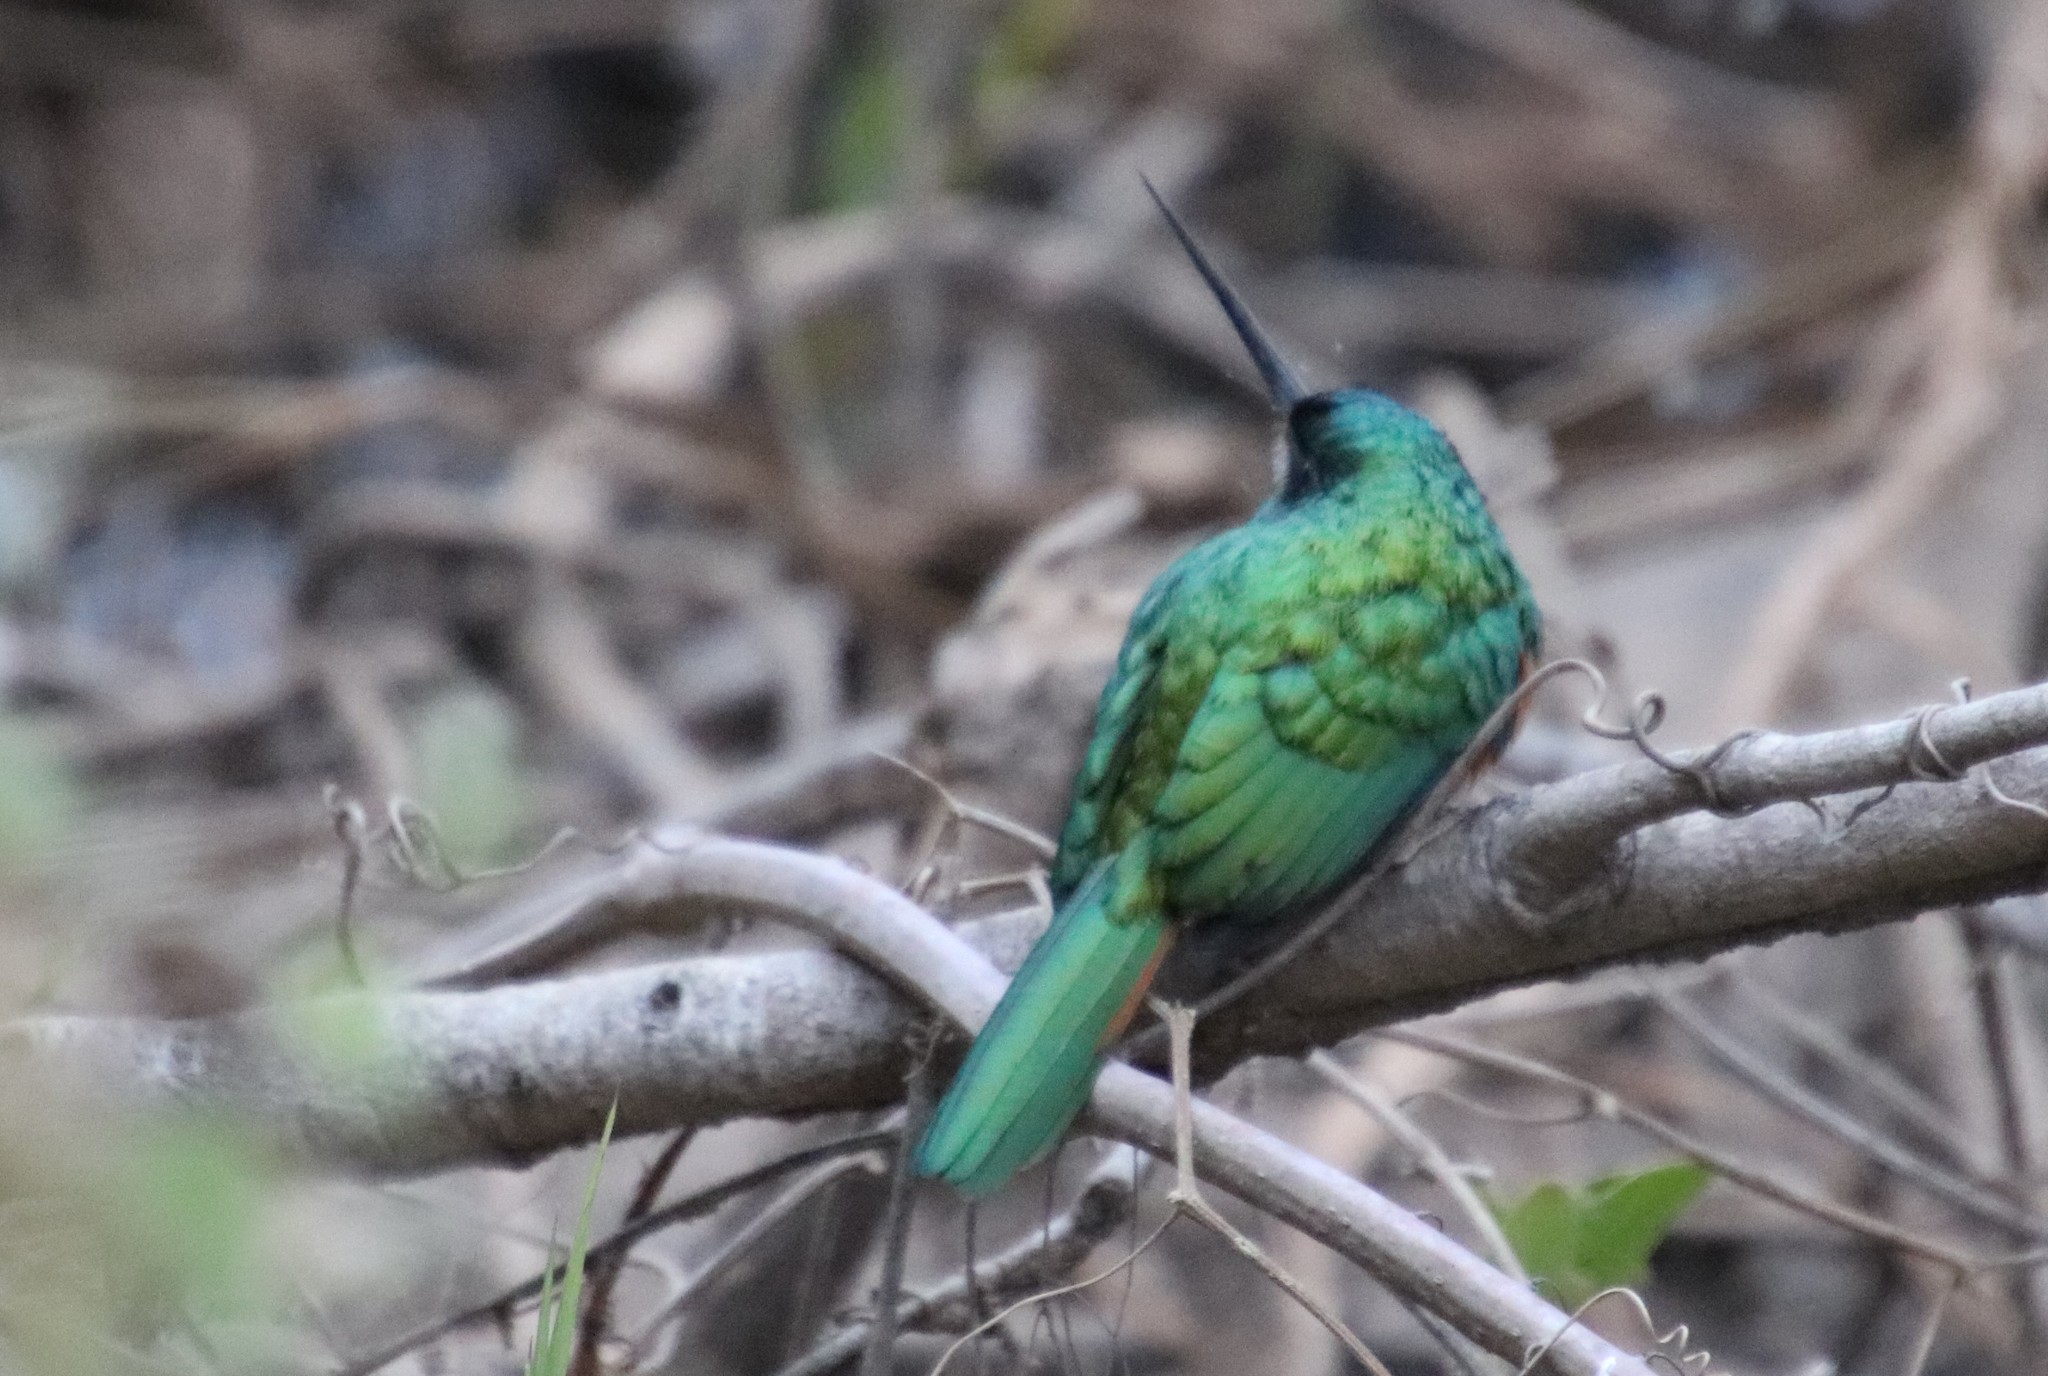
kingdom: Animalia
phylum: Chordata
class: Aves
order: Piciformes
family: Galbulidae
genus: Galbula
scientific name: Galbula ruficauda
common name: Rufous-tailed jacamar
